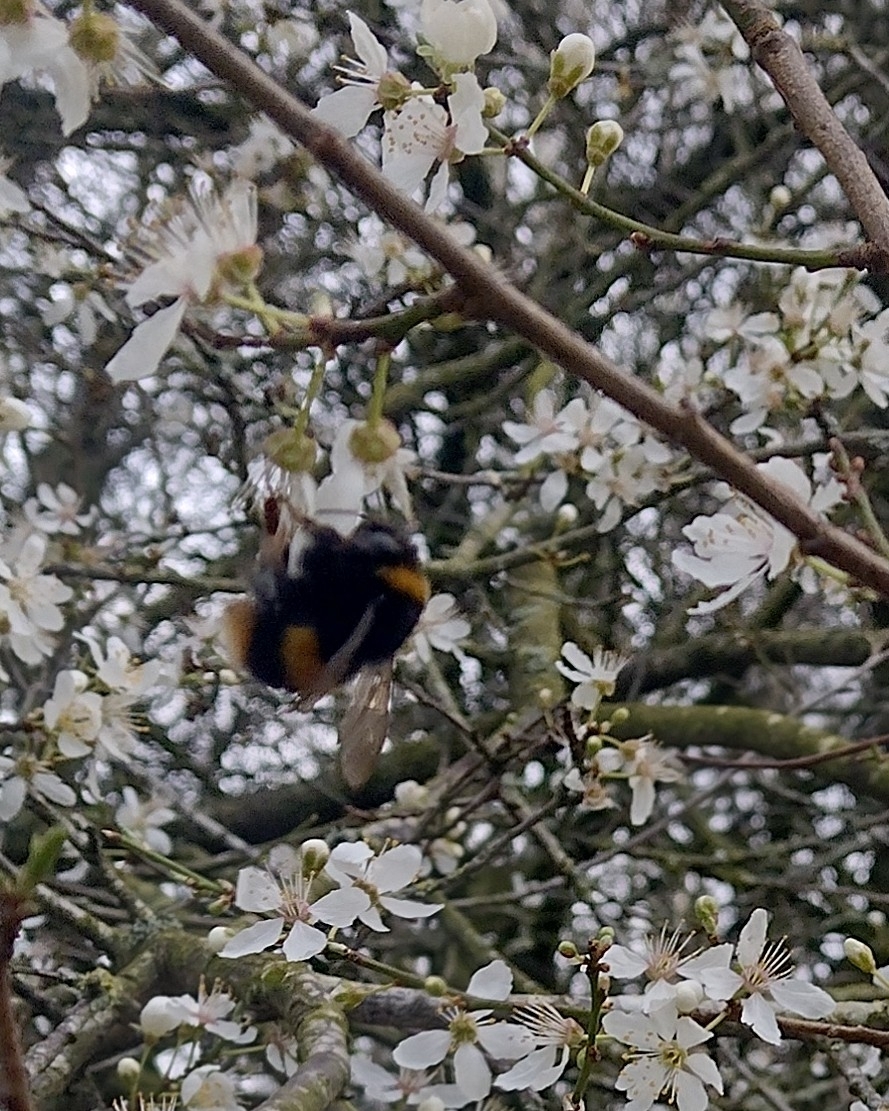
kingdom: Animalia
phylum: Arthropoda
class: Insecta
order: Hymenoptera
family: Apidae
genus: Bombus
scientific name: Bombus terrestris
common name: Buff-tailed bumblebee
